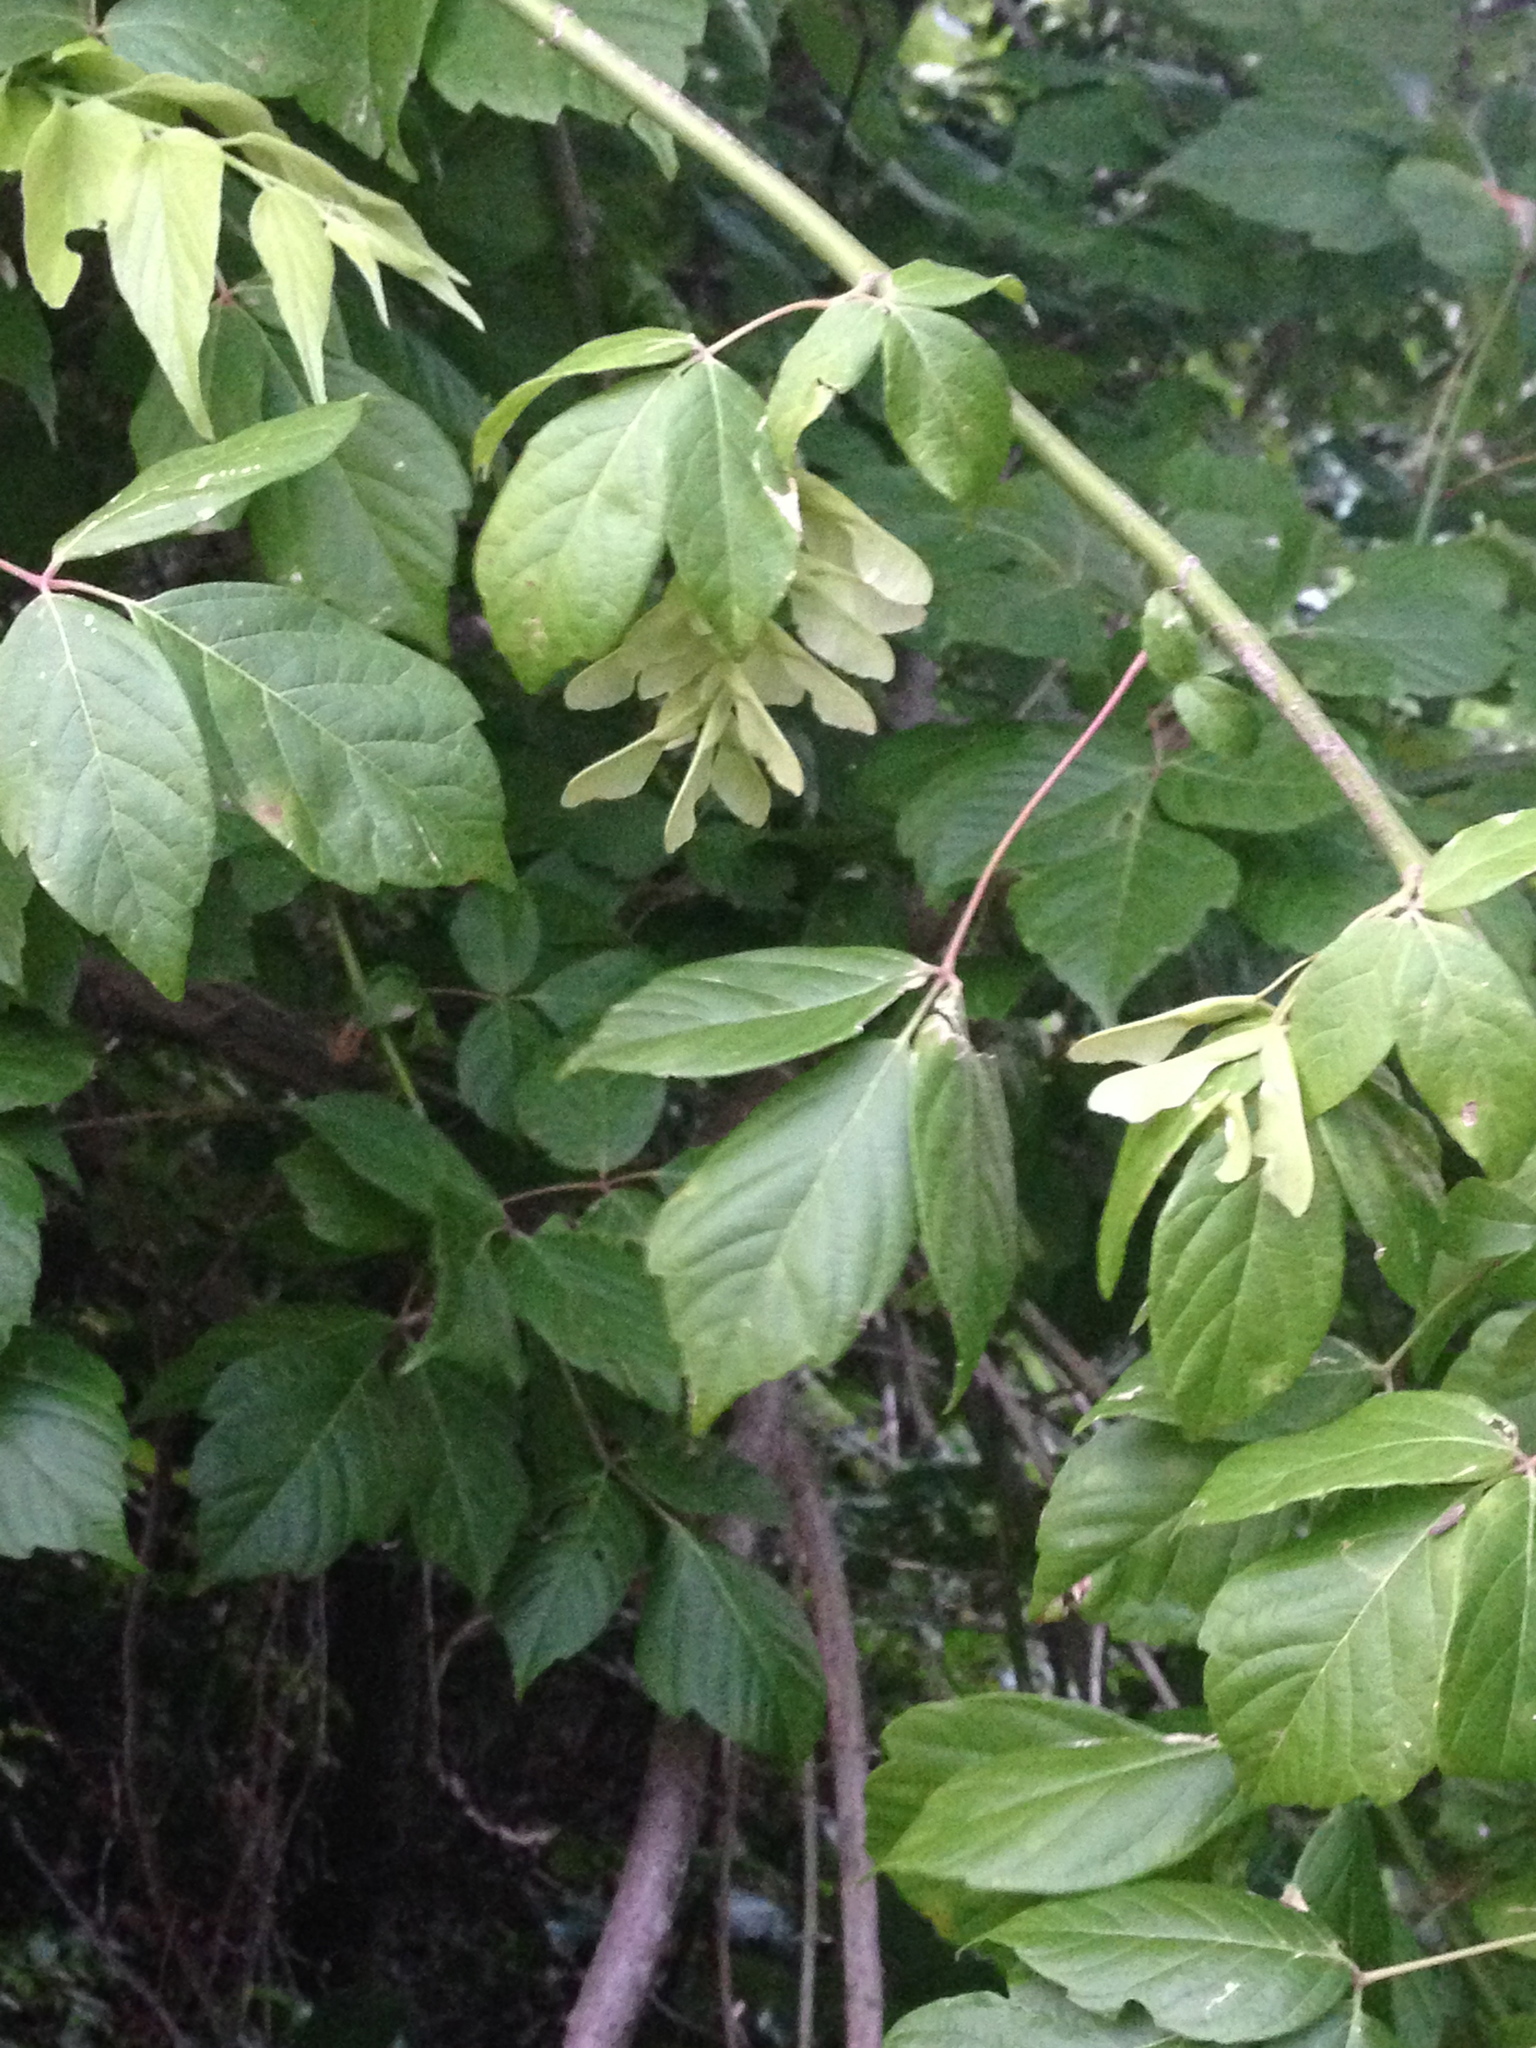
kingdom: Plantae
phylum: Tracheophyta
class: Magnoliopsida
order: Sapindales
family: Sapindaceae
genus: Acer
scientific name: Acer negundo
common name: Ashleaf maple
